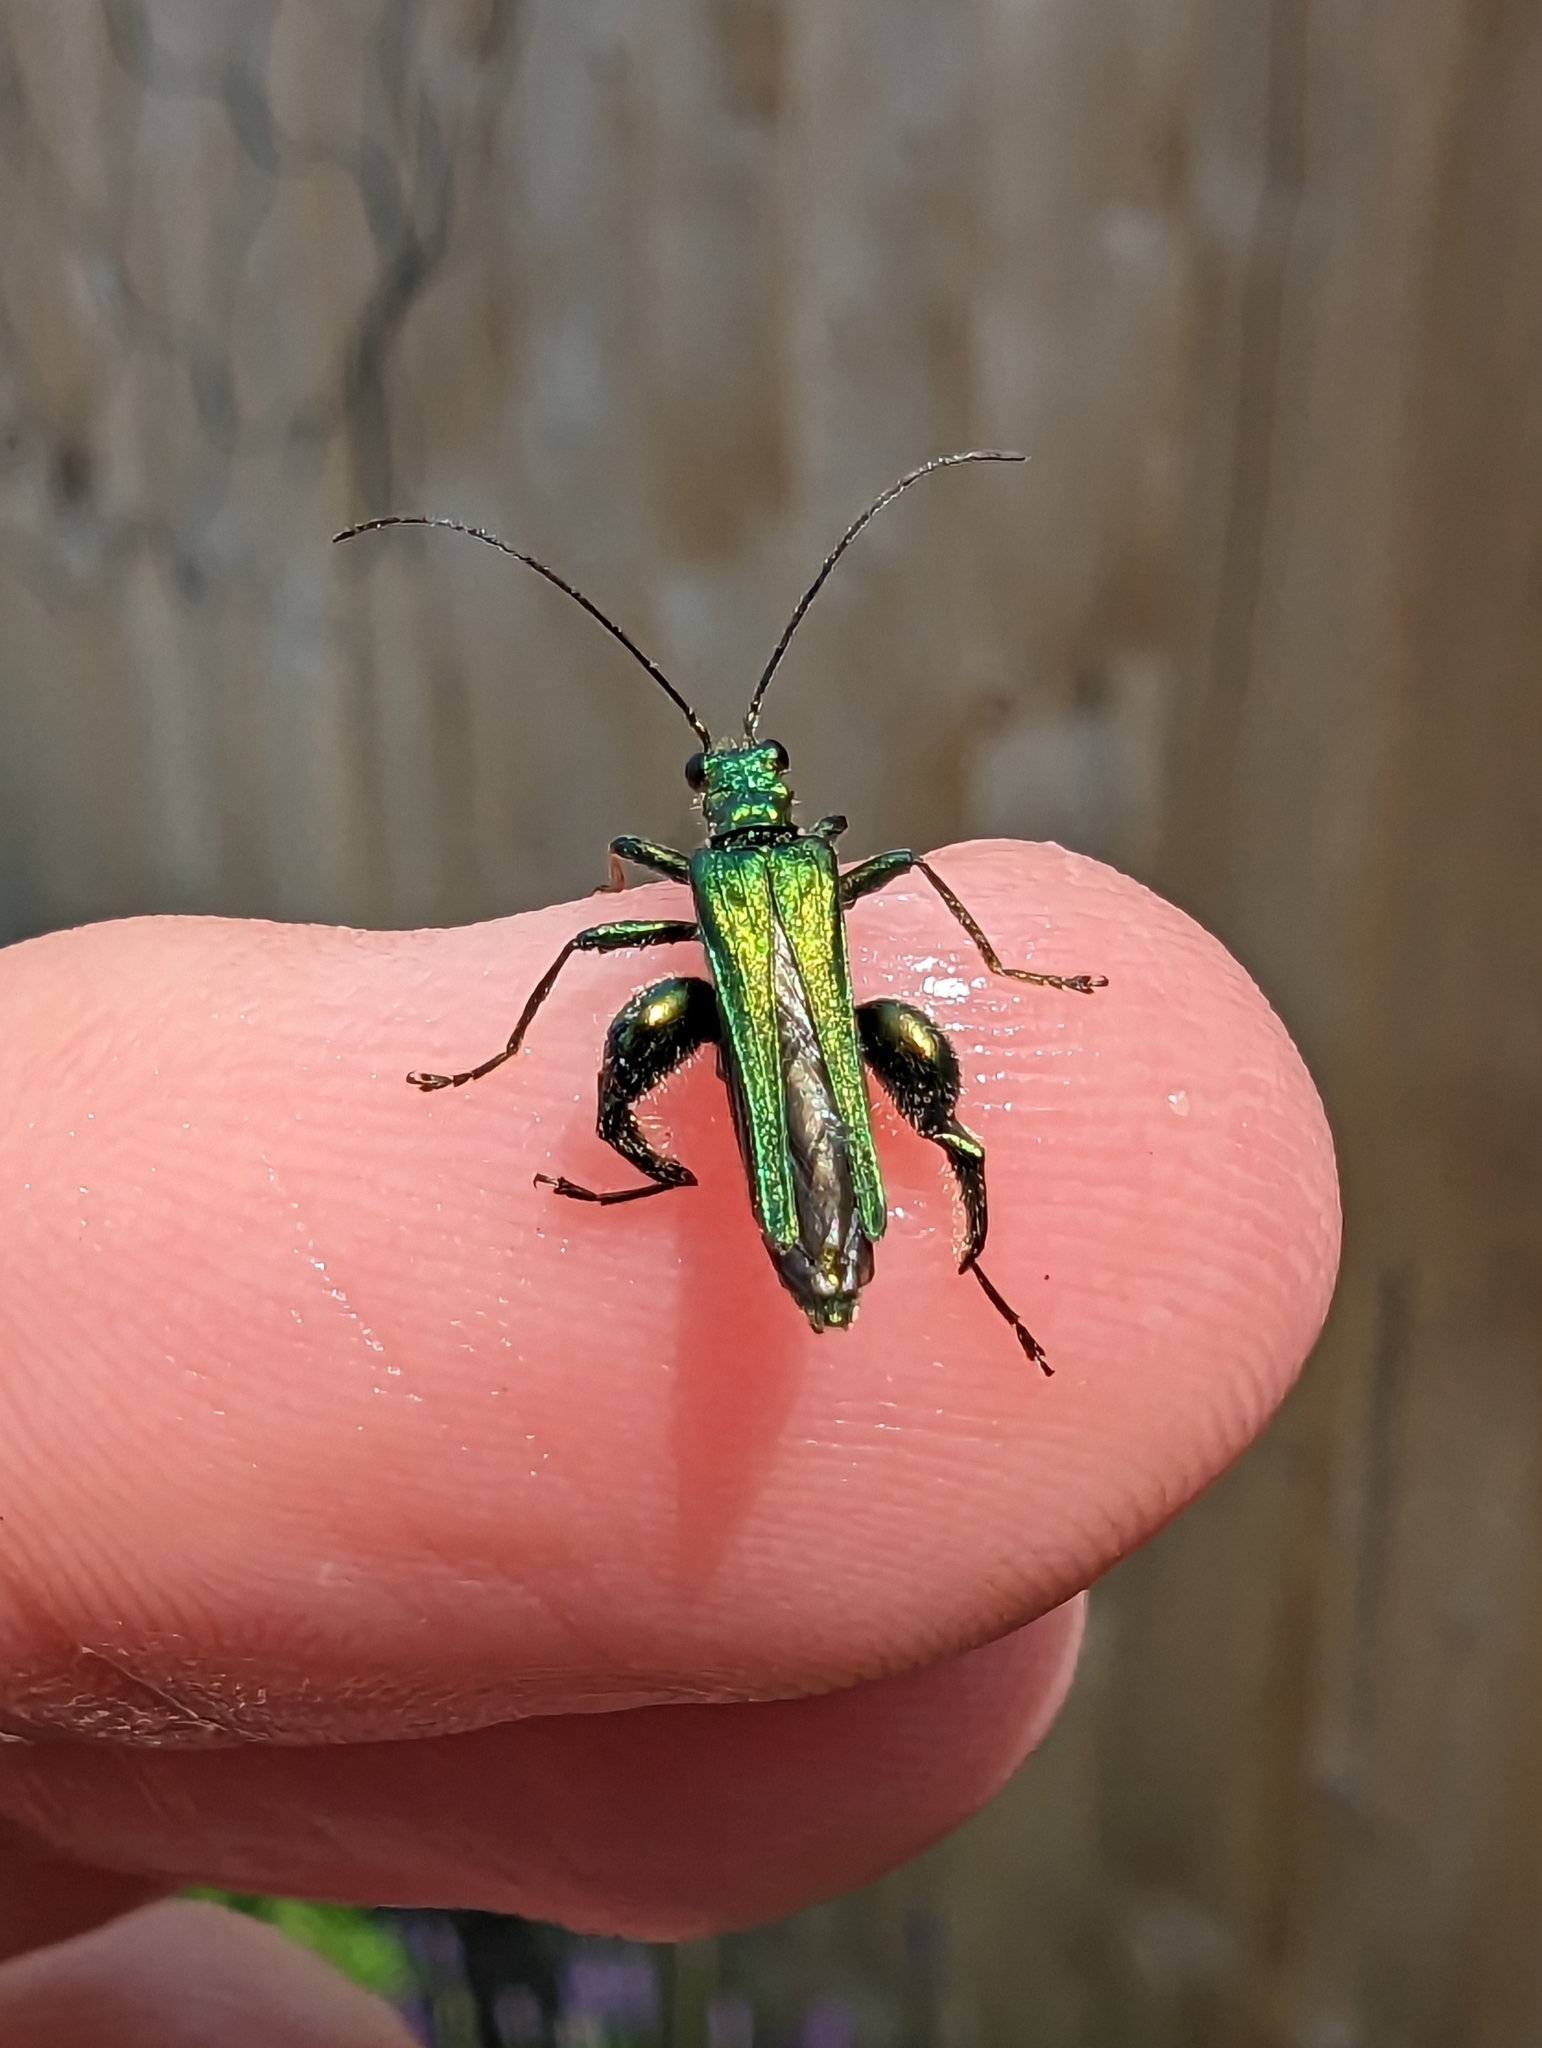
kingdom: Animalia
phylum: Arthropoda
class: Insecta
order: Coleoptera
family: Oedemeridae
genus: Oedemera
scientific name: Oedemera nobilis
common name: Swollen-thighed beetle
